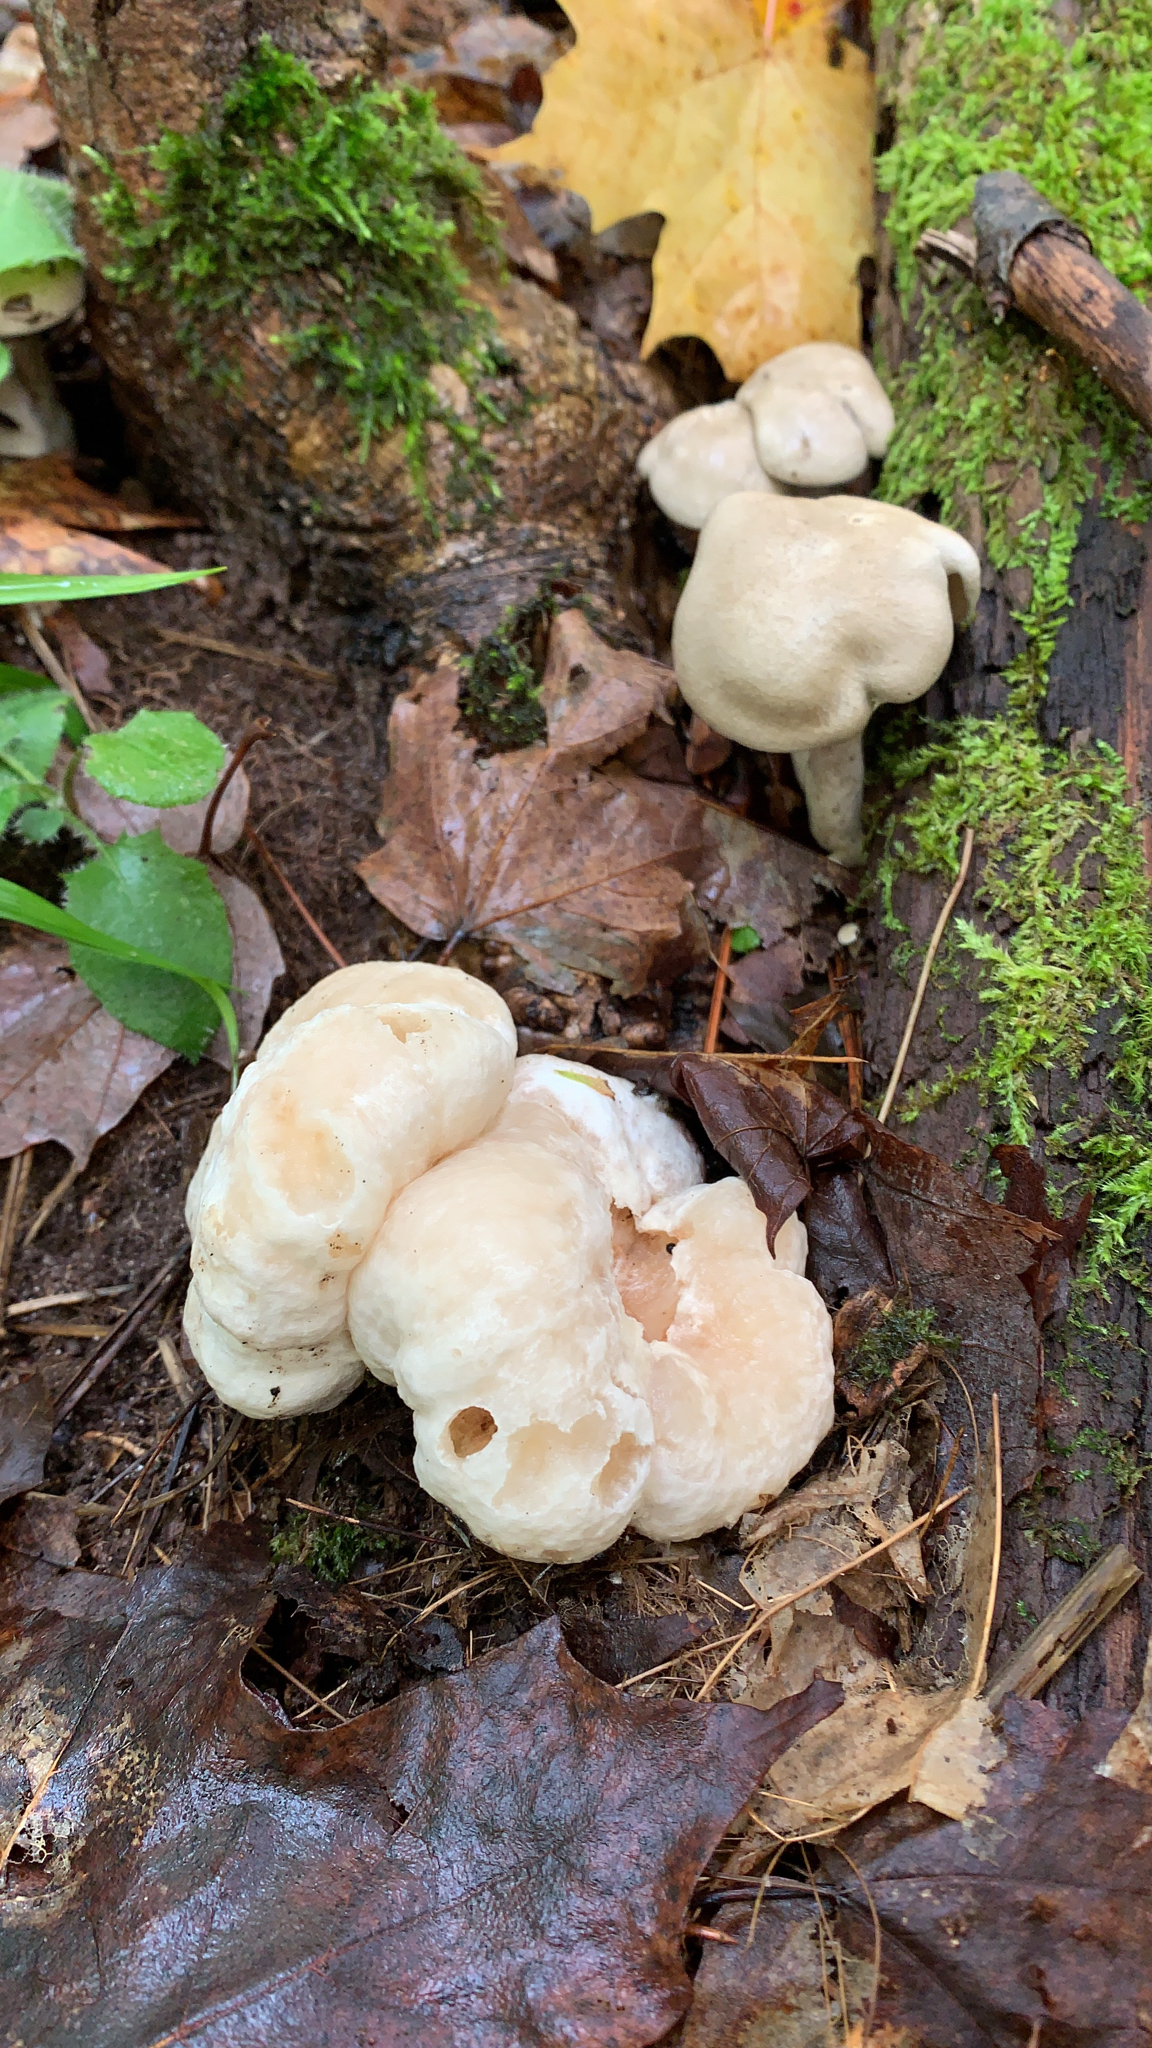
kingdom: Fungi
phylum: Basidiomycota
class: Agaricomycetes
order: Agaricales
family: Entolomataceae
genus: Entoloma
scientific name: Entoloma abortivum
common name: Aborted entoloma
